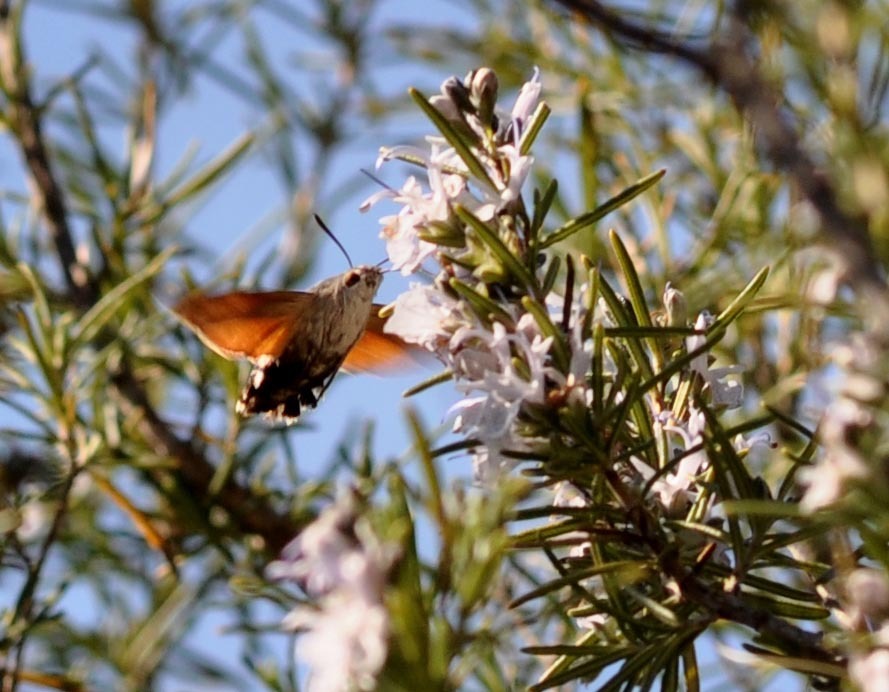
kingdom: Animalia
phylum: Arthropoda
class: Insecta
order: Lepidoptera
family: Sphingidae
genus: Macroglossum
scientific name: Macroglossum stellatarum
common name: Humming-bird hawk-moth
